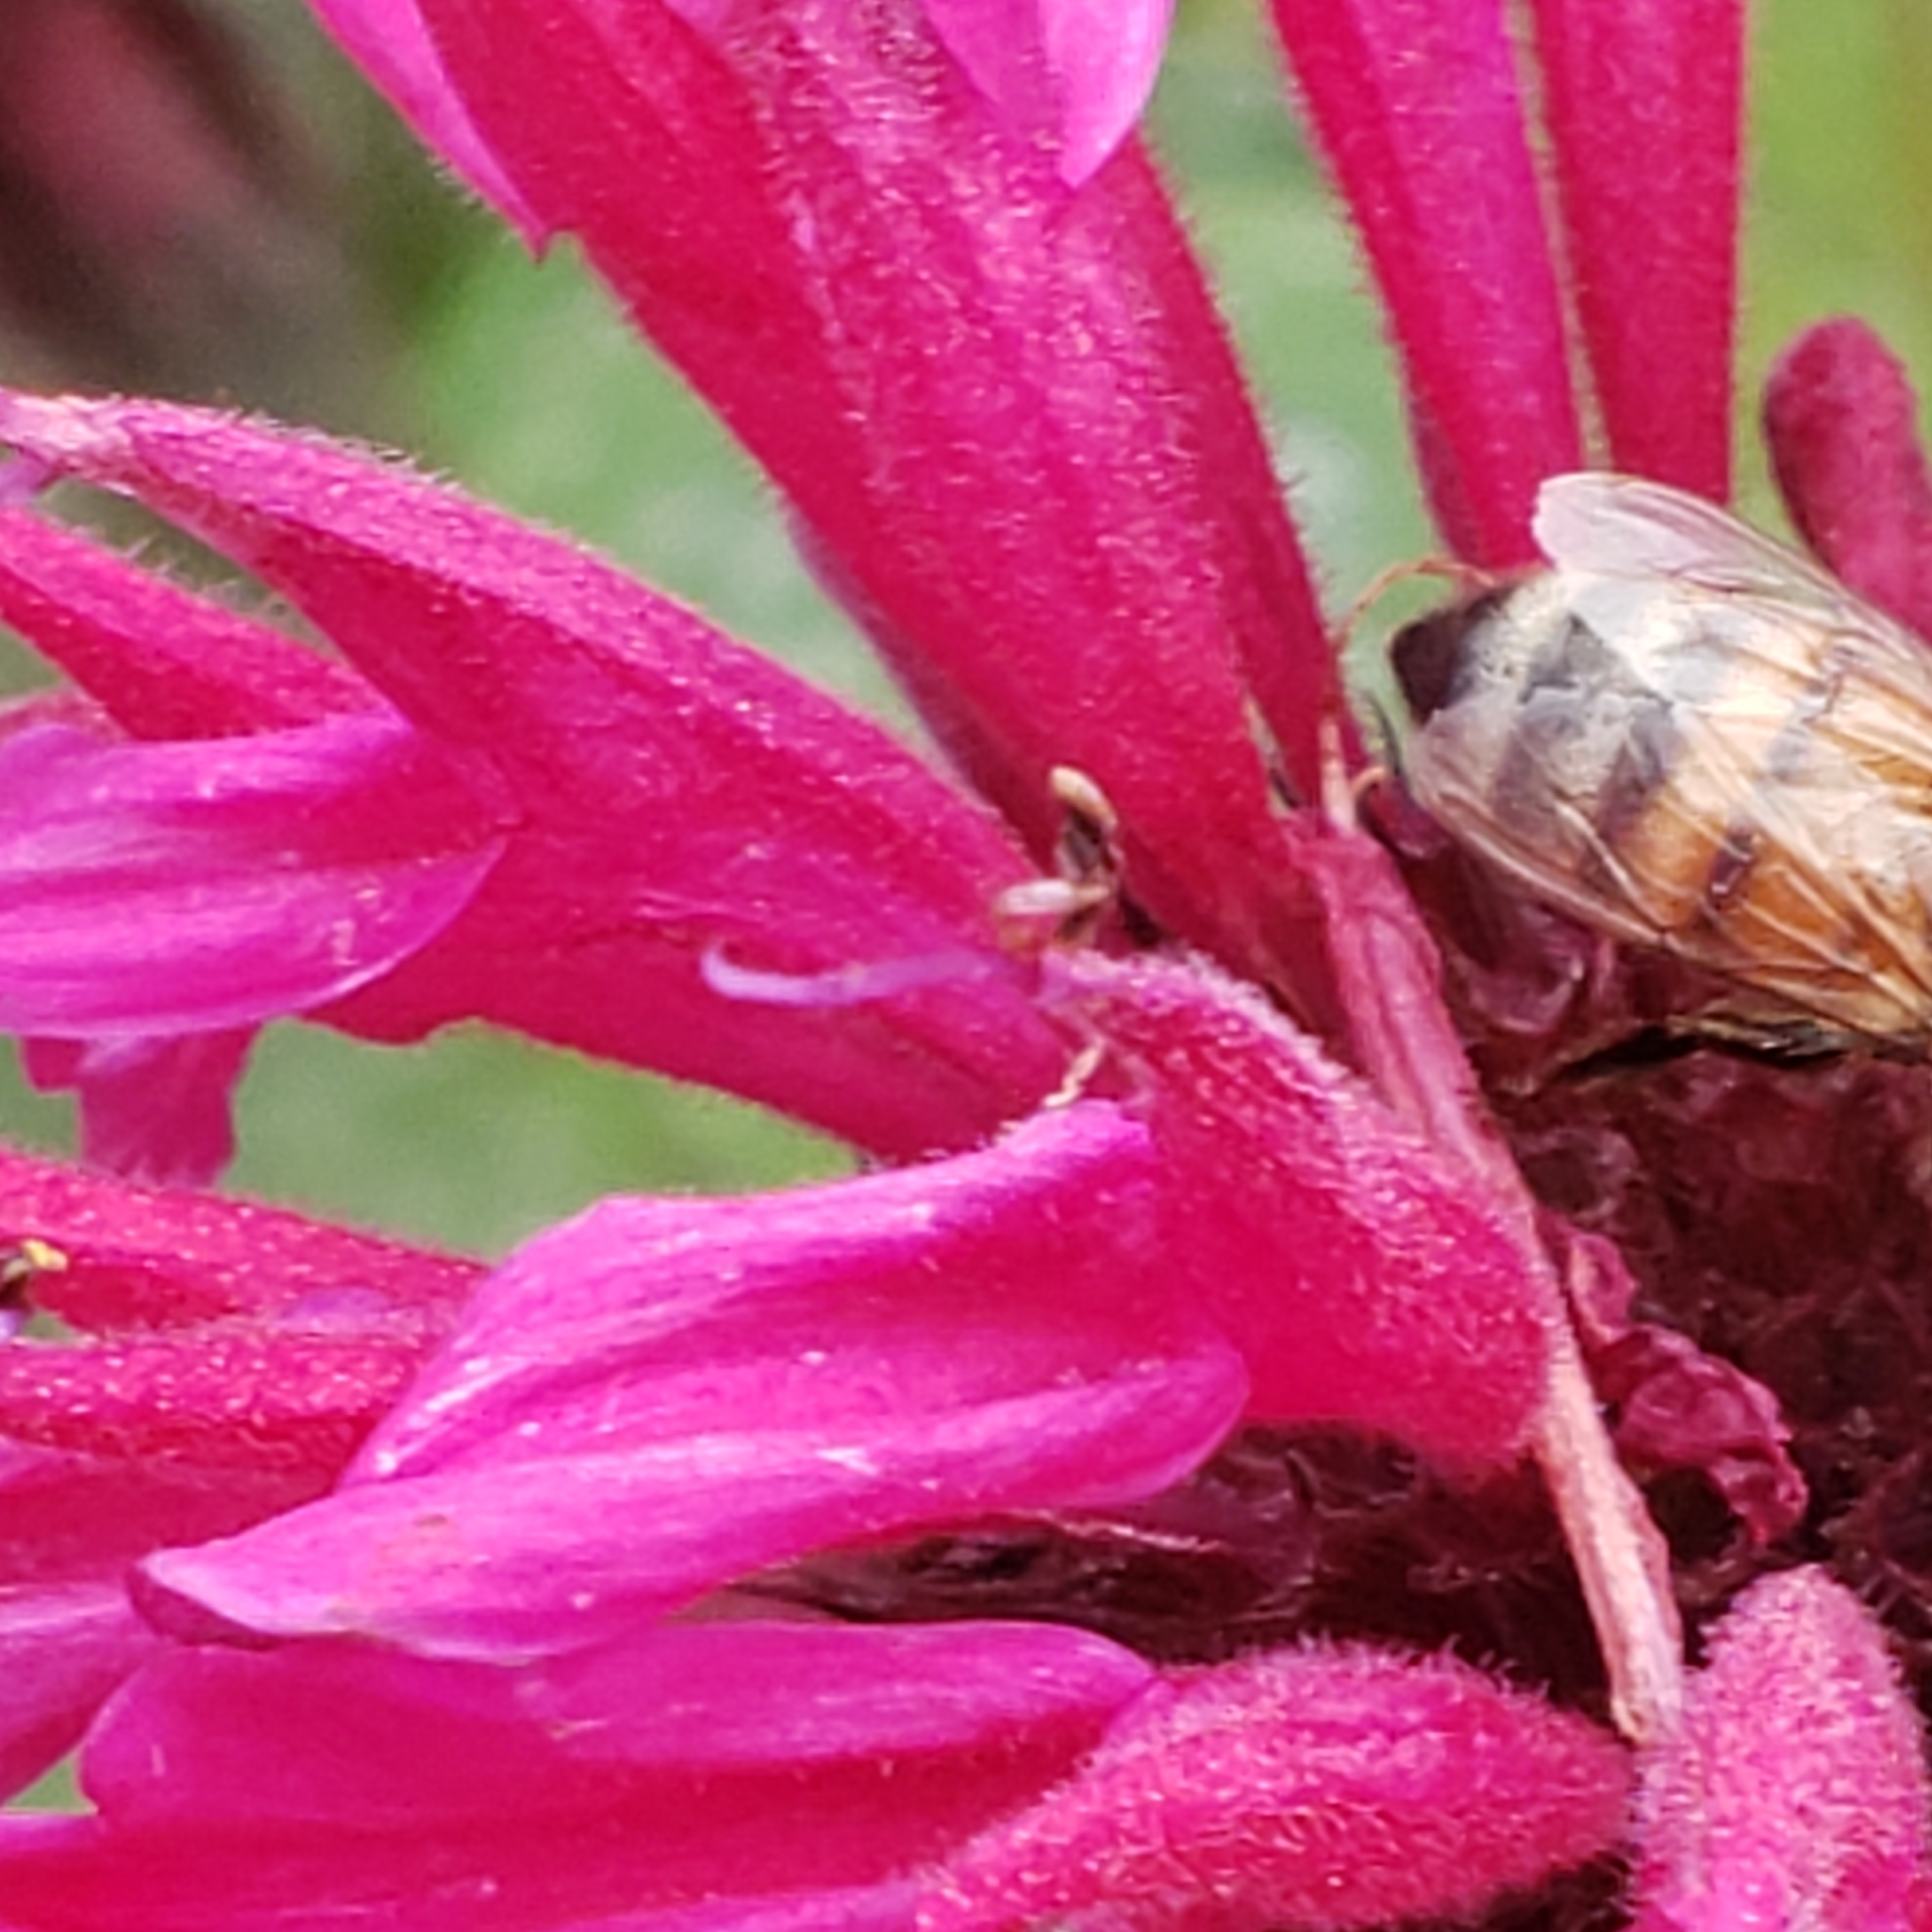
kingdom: Animalia
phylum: Arthropoda
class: Insecta
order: Hymenoptera
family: Apidae
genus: Apis
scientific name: Apis mellifera
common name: Honey bee
